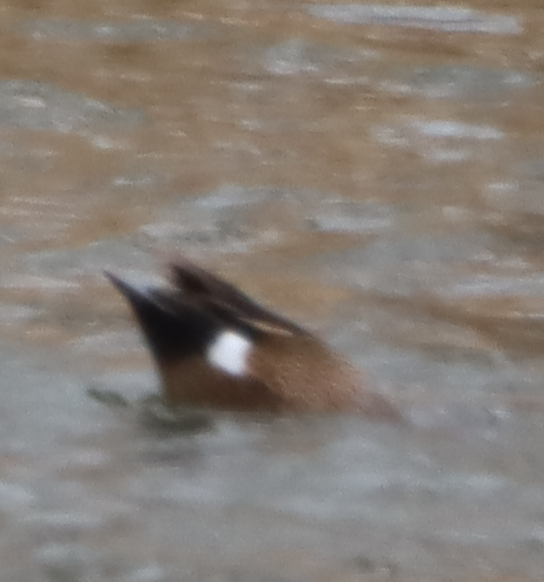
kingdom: Animalia
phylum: Chordata
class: Aves
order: Anseriformes
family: Anatidae
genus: Spatula
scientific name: Spatula discors
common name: Blue-winged teal
